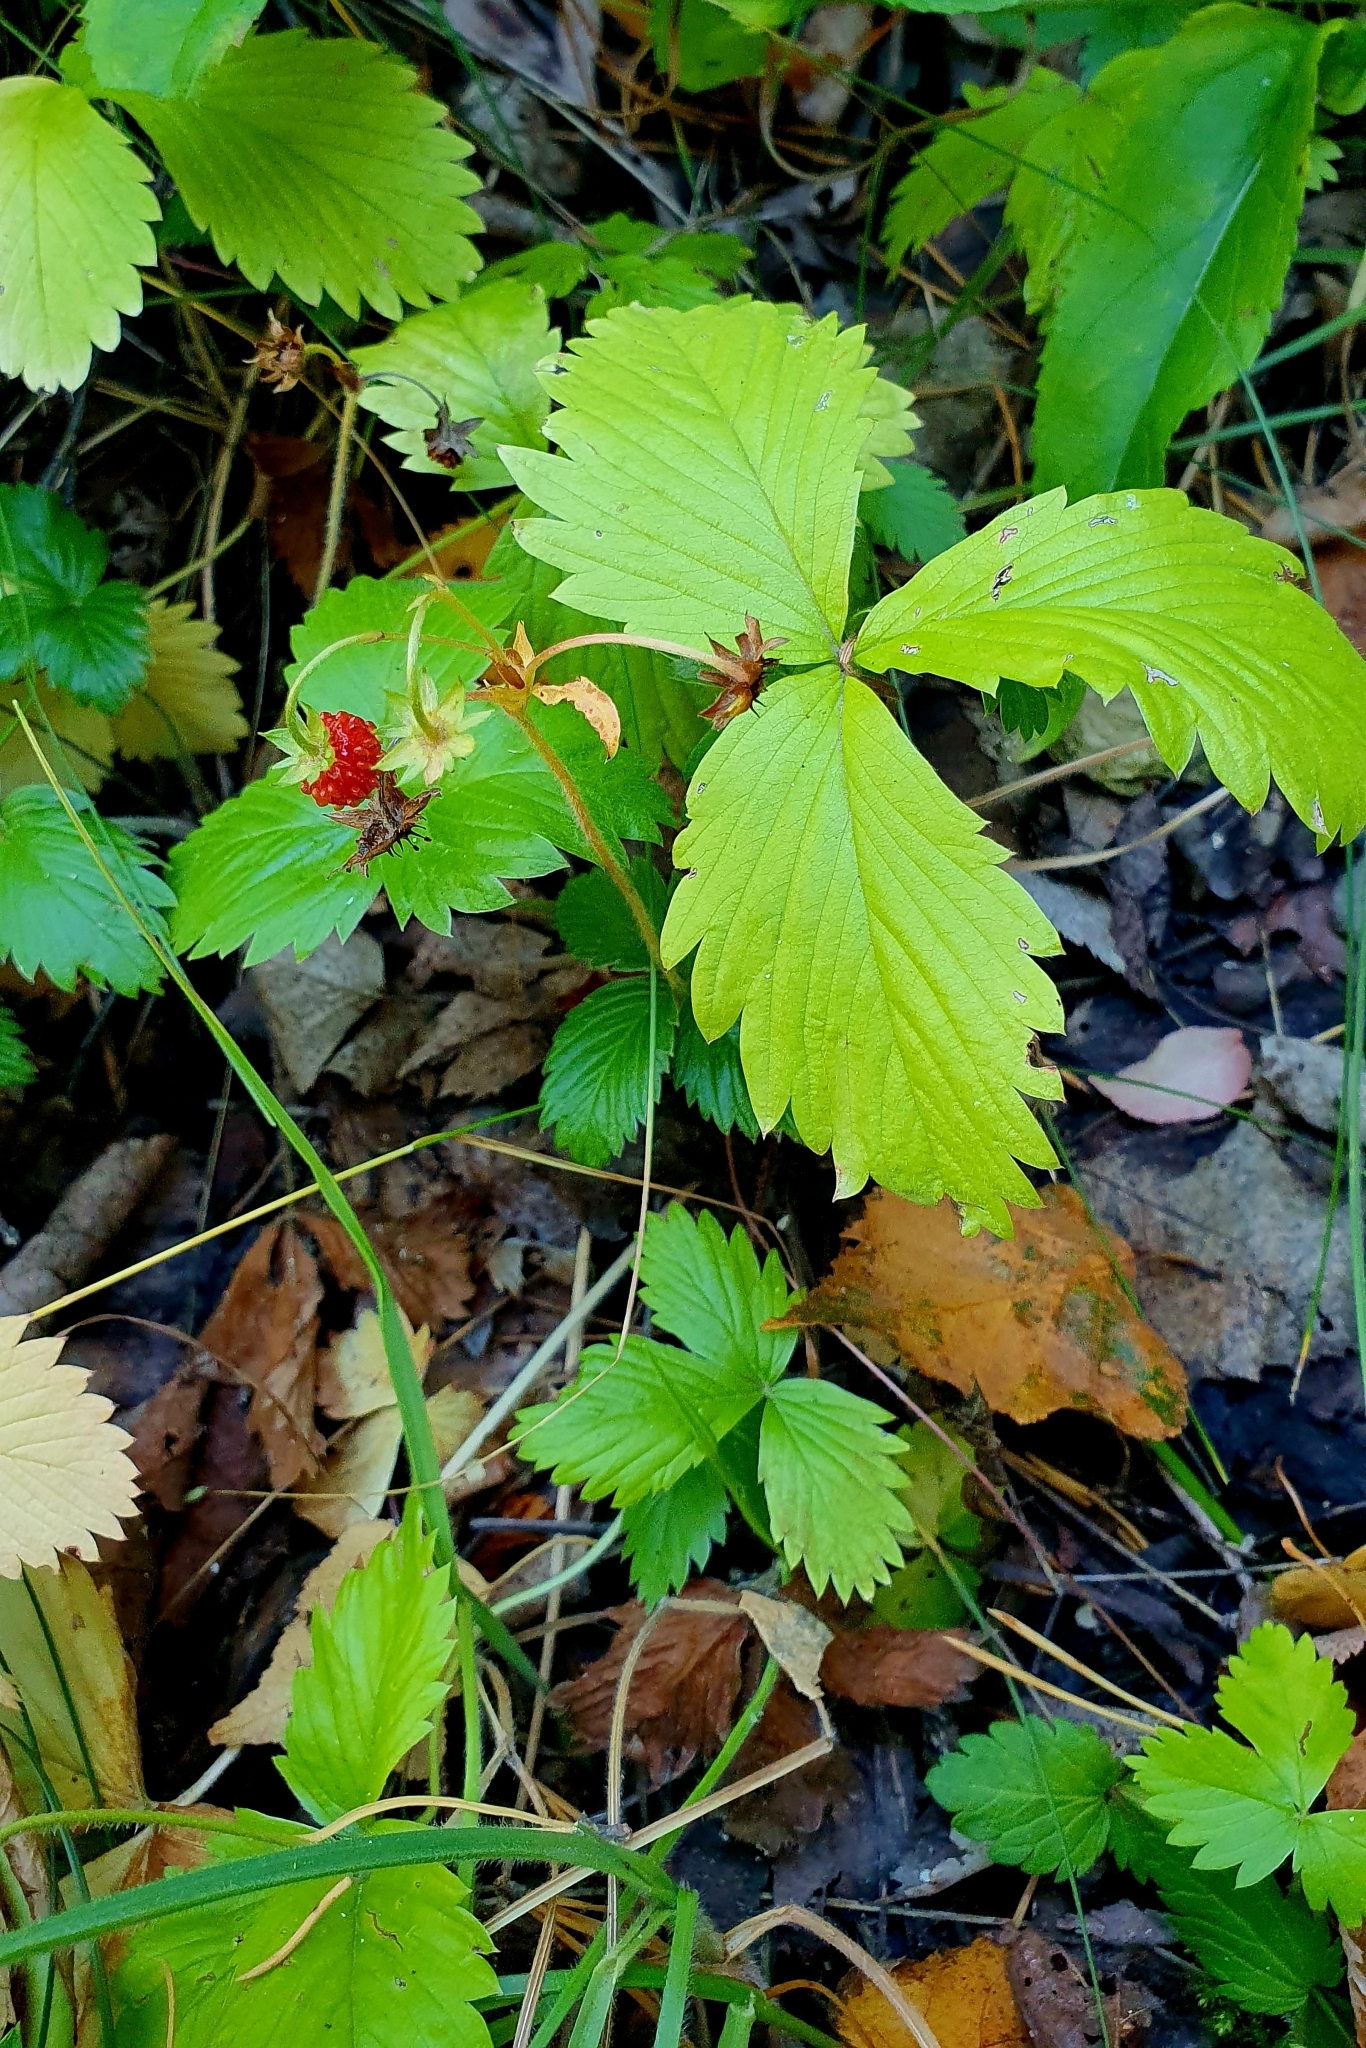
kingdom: Plantae
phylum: Tracheophyta
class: Magnoliopsida
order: Rosales
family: Rosaceae
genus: Fragaria
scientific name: Fragaria vesca
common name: Wild strawberry
